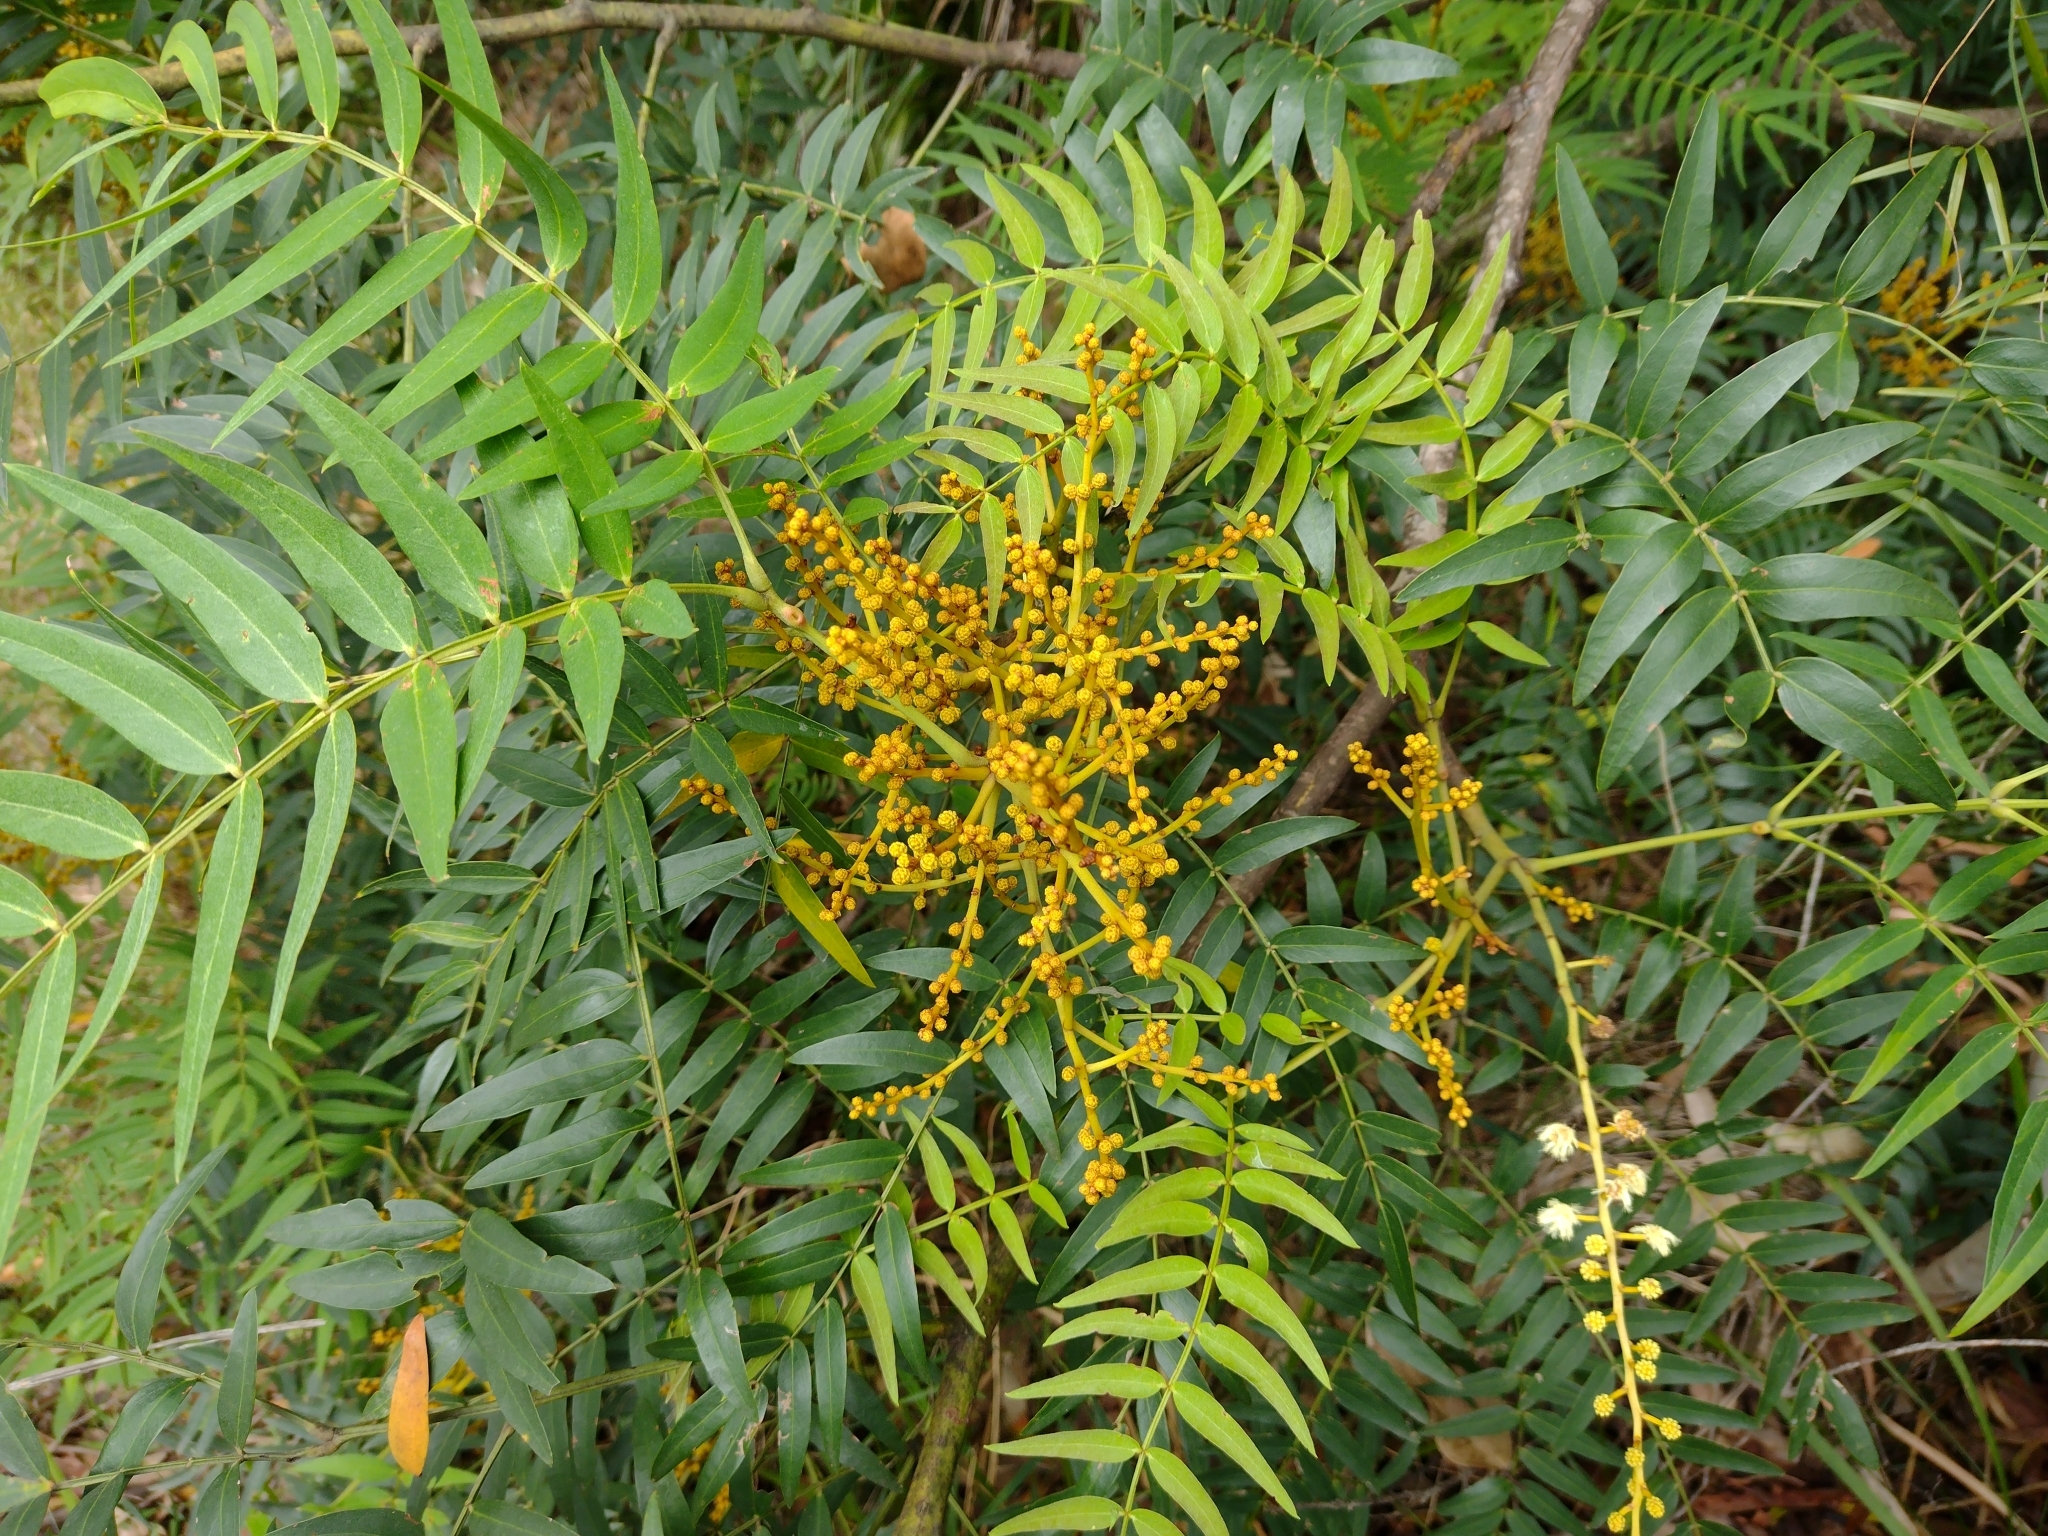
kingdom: Plantae
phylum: Tracheophyta
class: Magnoliopsida
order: Fabales
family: Fabaceae
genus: Acacia
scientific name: Acacia elata
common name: Cedar wattle
